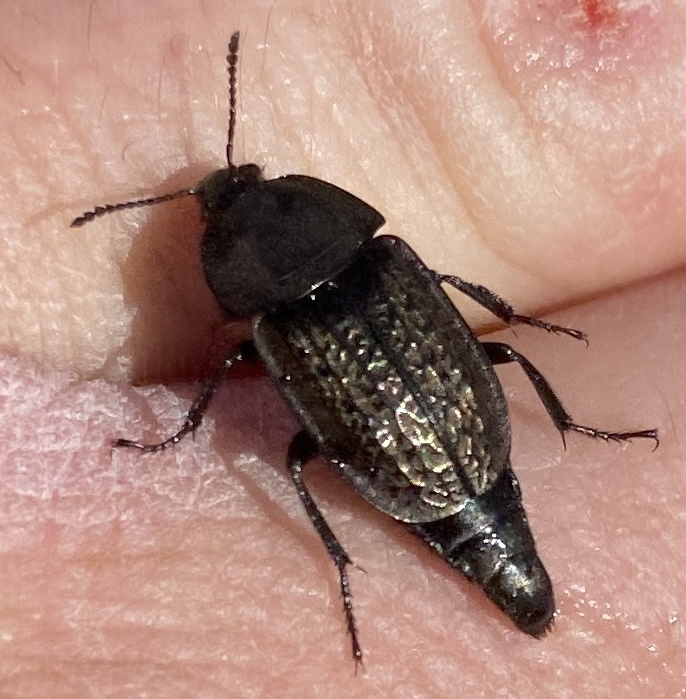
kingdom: Animalia
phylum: Arthropoda
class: Insecta
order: Coleoptera
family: Staphylinidae
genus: Heterosilpha
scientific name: Heterosilpha ramosa
